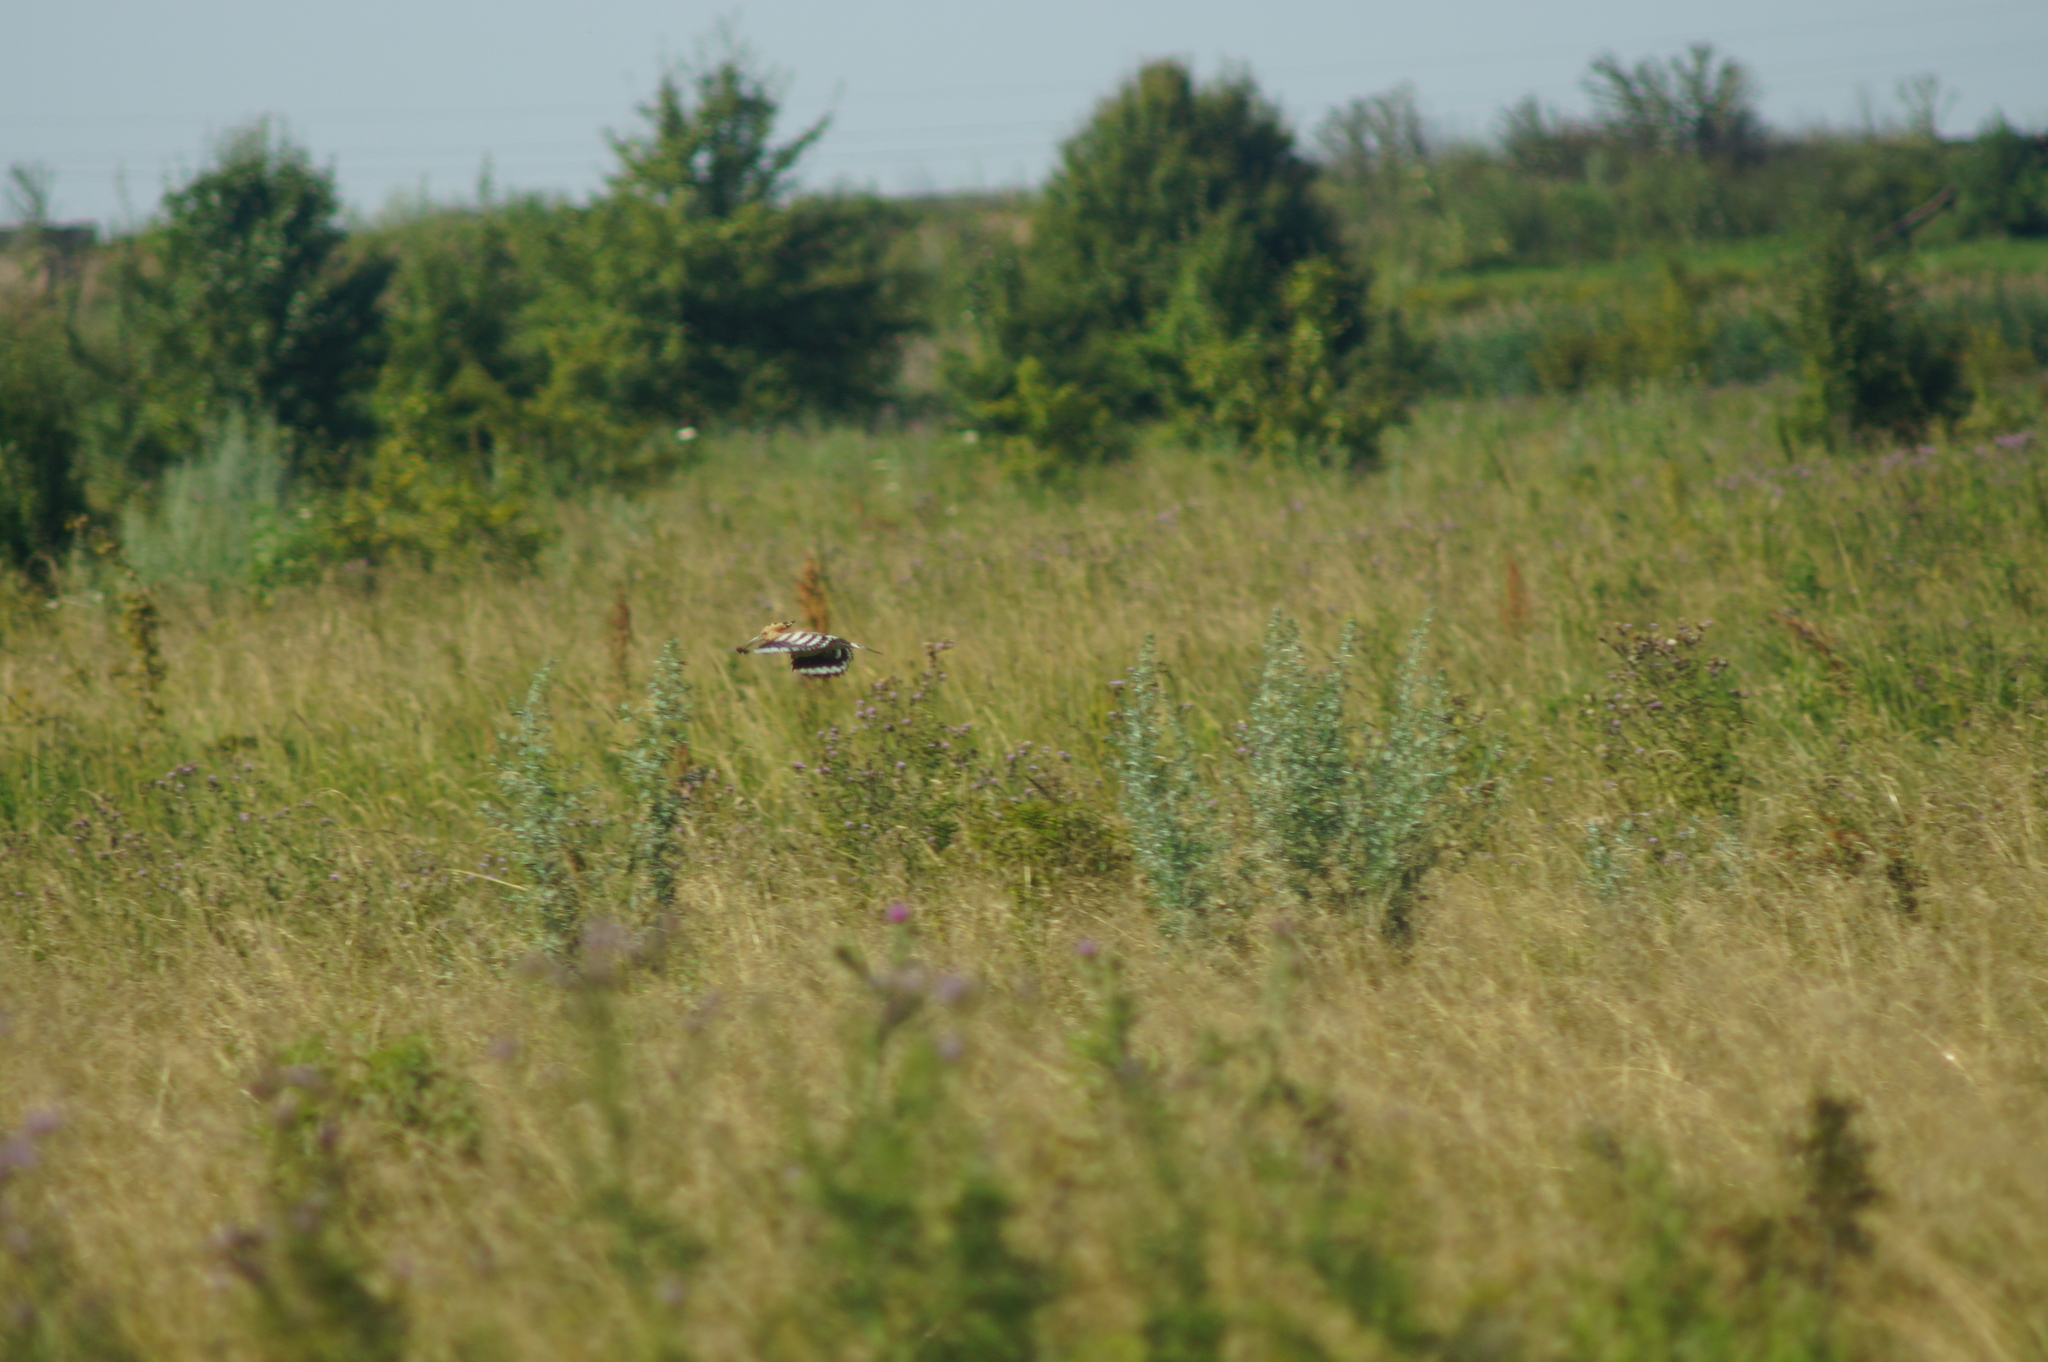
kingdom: Animalia
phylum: Chordata
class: Aves
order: Bucerotiformes
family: Upupidae
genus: Upupa
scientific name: Upupa epops
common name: Eurasian hoopoe
